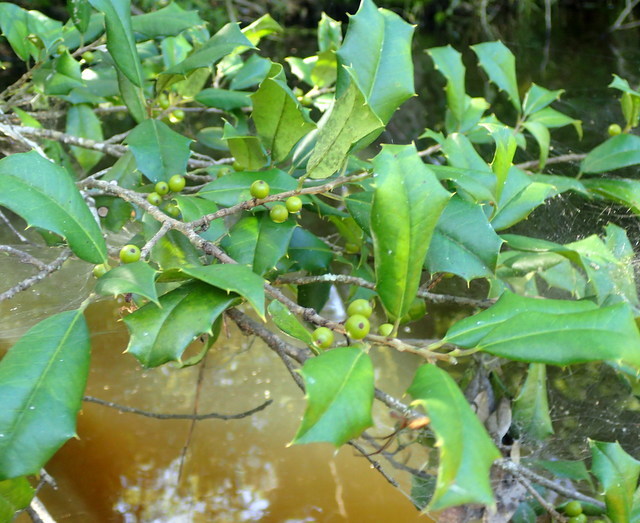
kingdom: Plantae
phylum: Tracheophyta
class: Magnoliopsida
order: Aquifoliales
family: Aquifoliaceae
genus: Ilex
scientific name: Ilex opaca
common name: American holly
